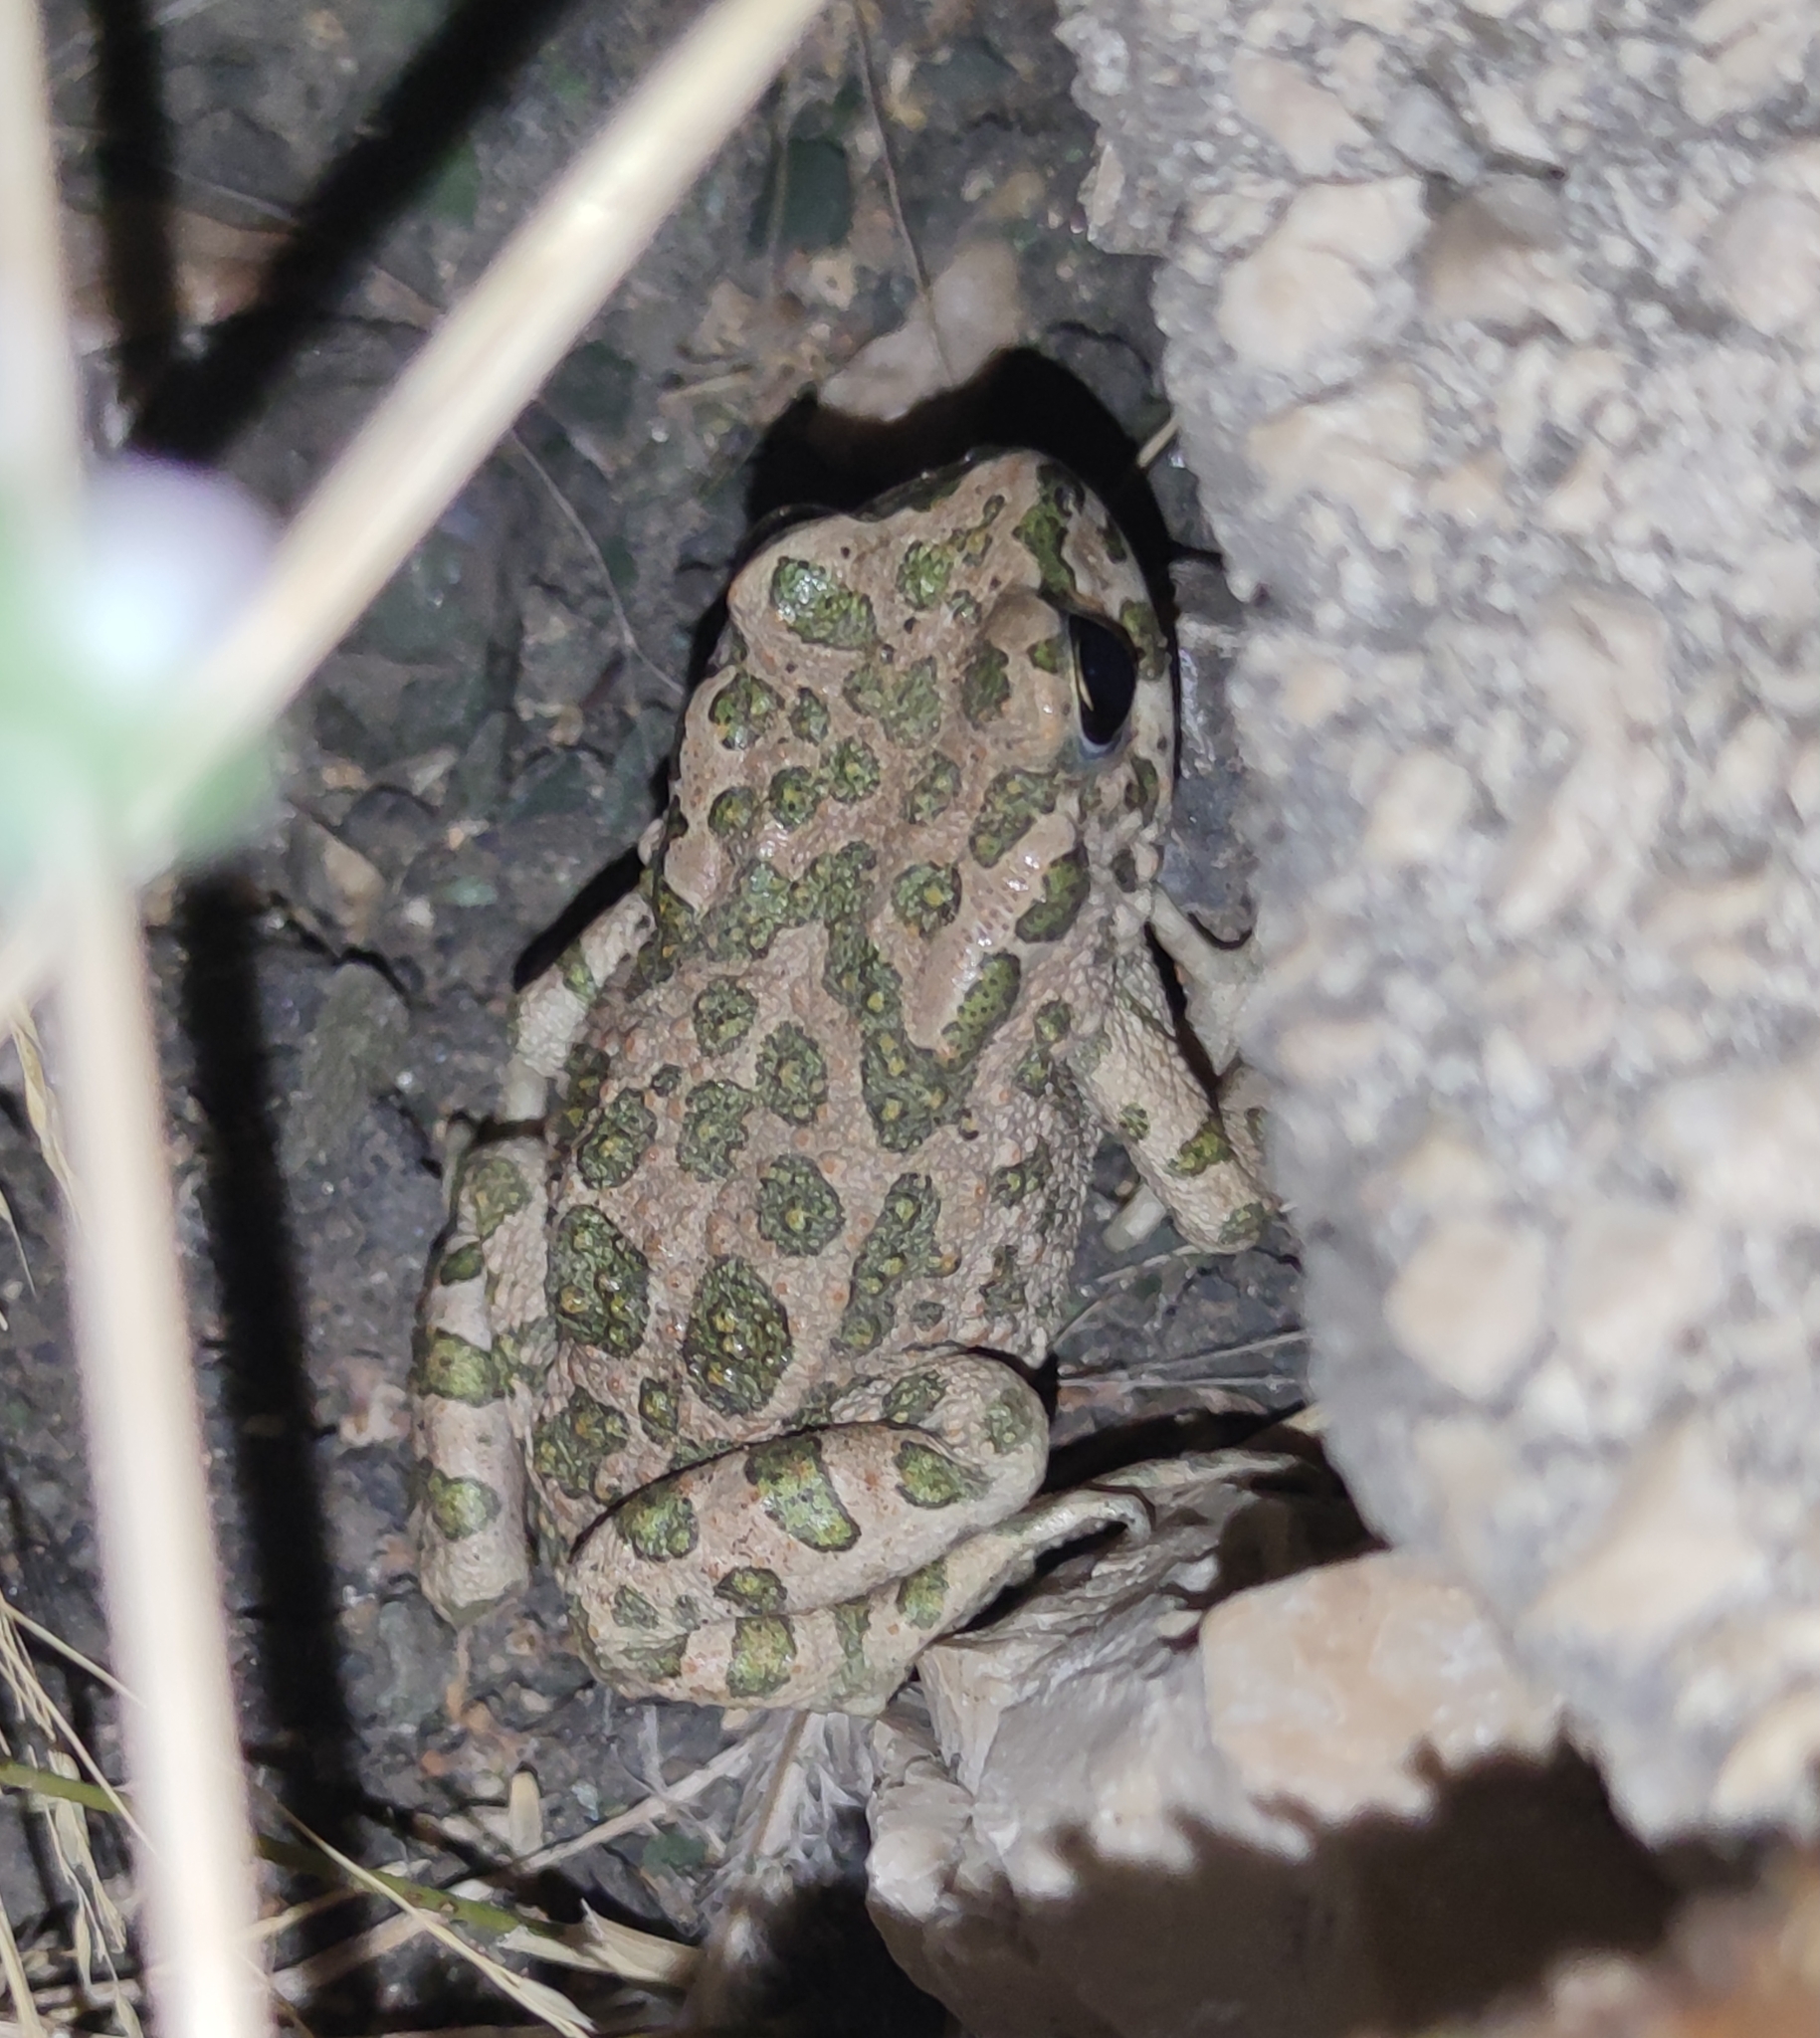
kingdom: Animalia
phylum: Chordata
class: Amphibia
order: Anura
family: Bufonidae
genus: Bufotes
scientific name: Bufotes viridis
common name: European green toad
